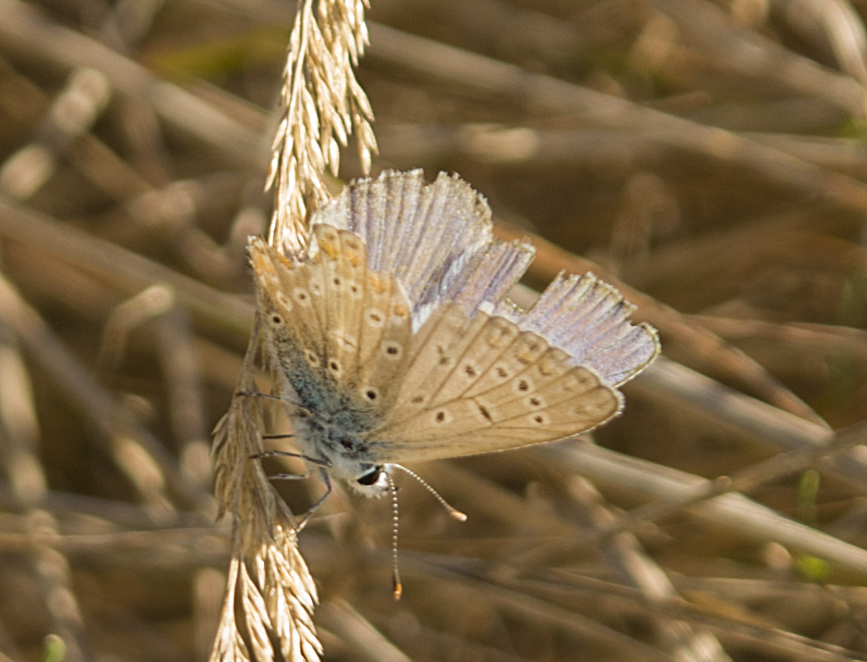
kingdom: Animalia
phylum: Arthropoda
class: Insecta
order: Lepidoptera
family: Lycaenidae
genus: Polyommatus
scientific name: Polyommatus icarus
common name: Common blue
